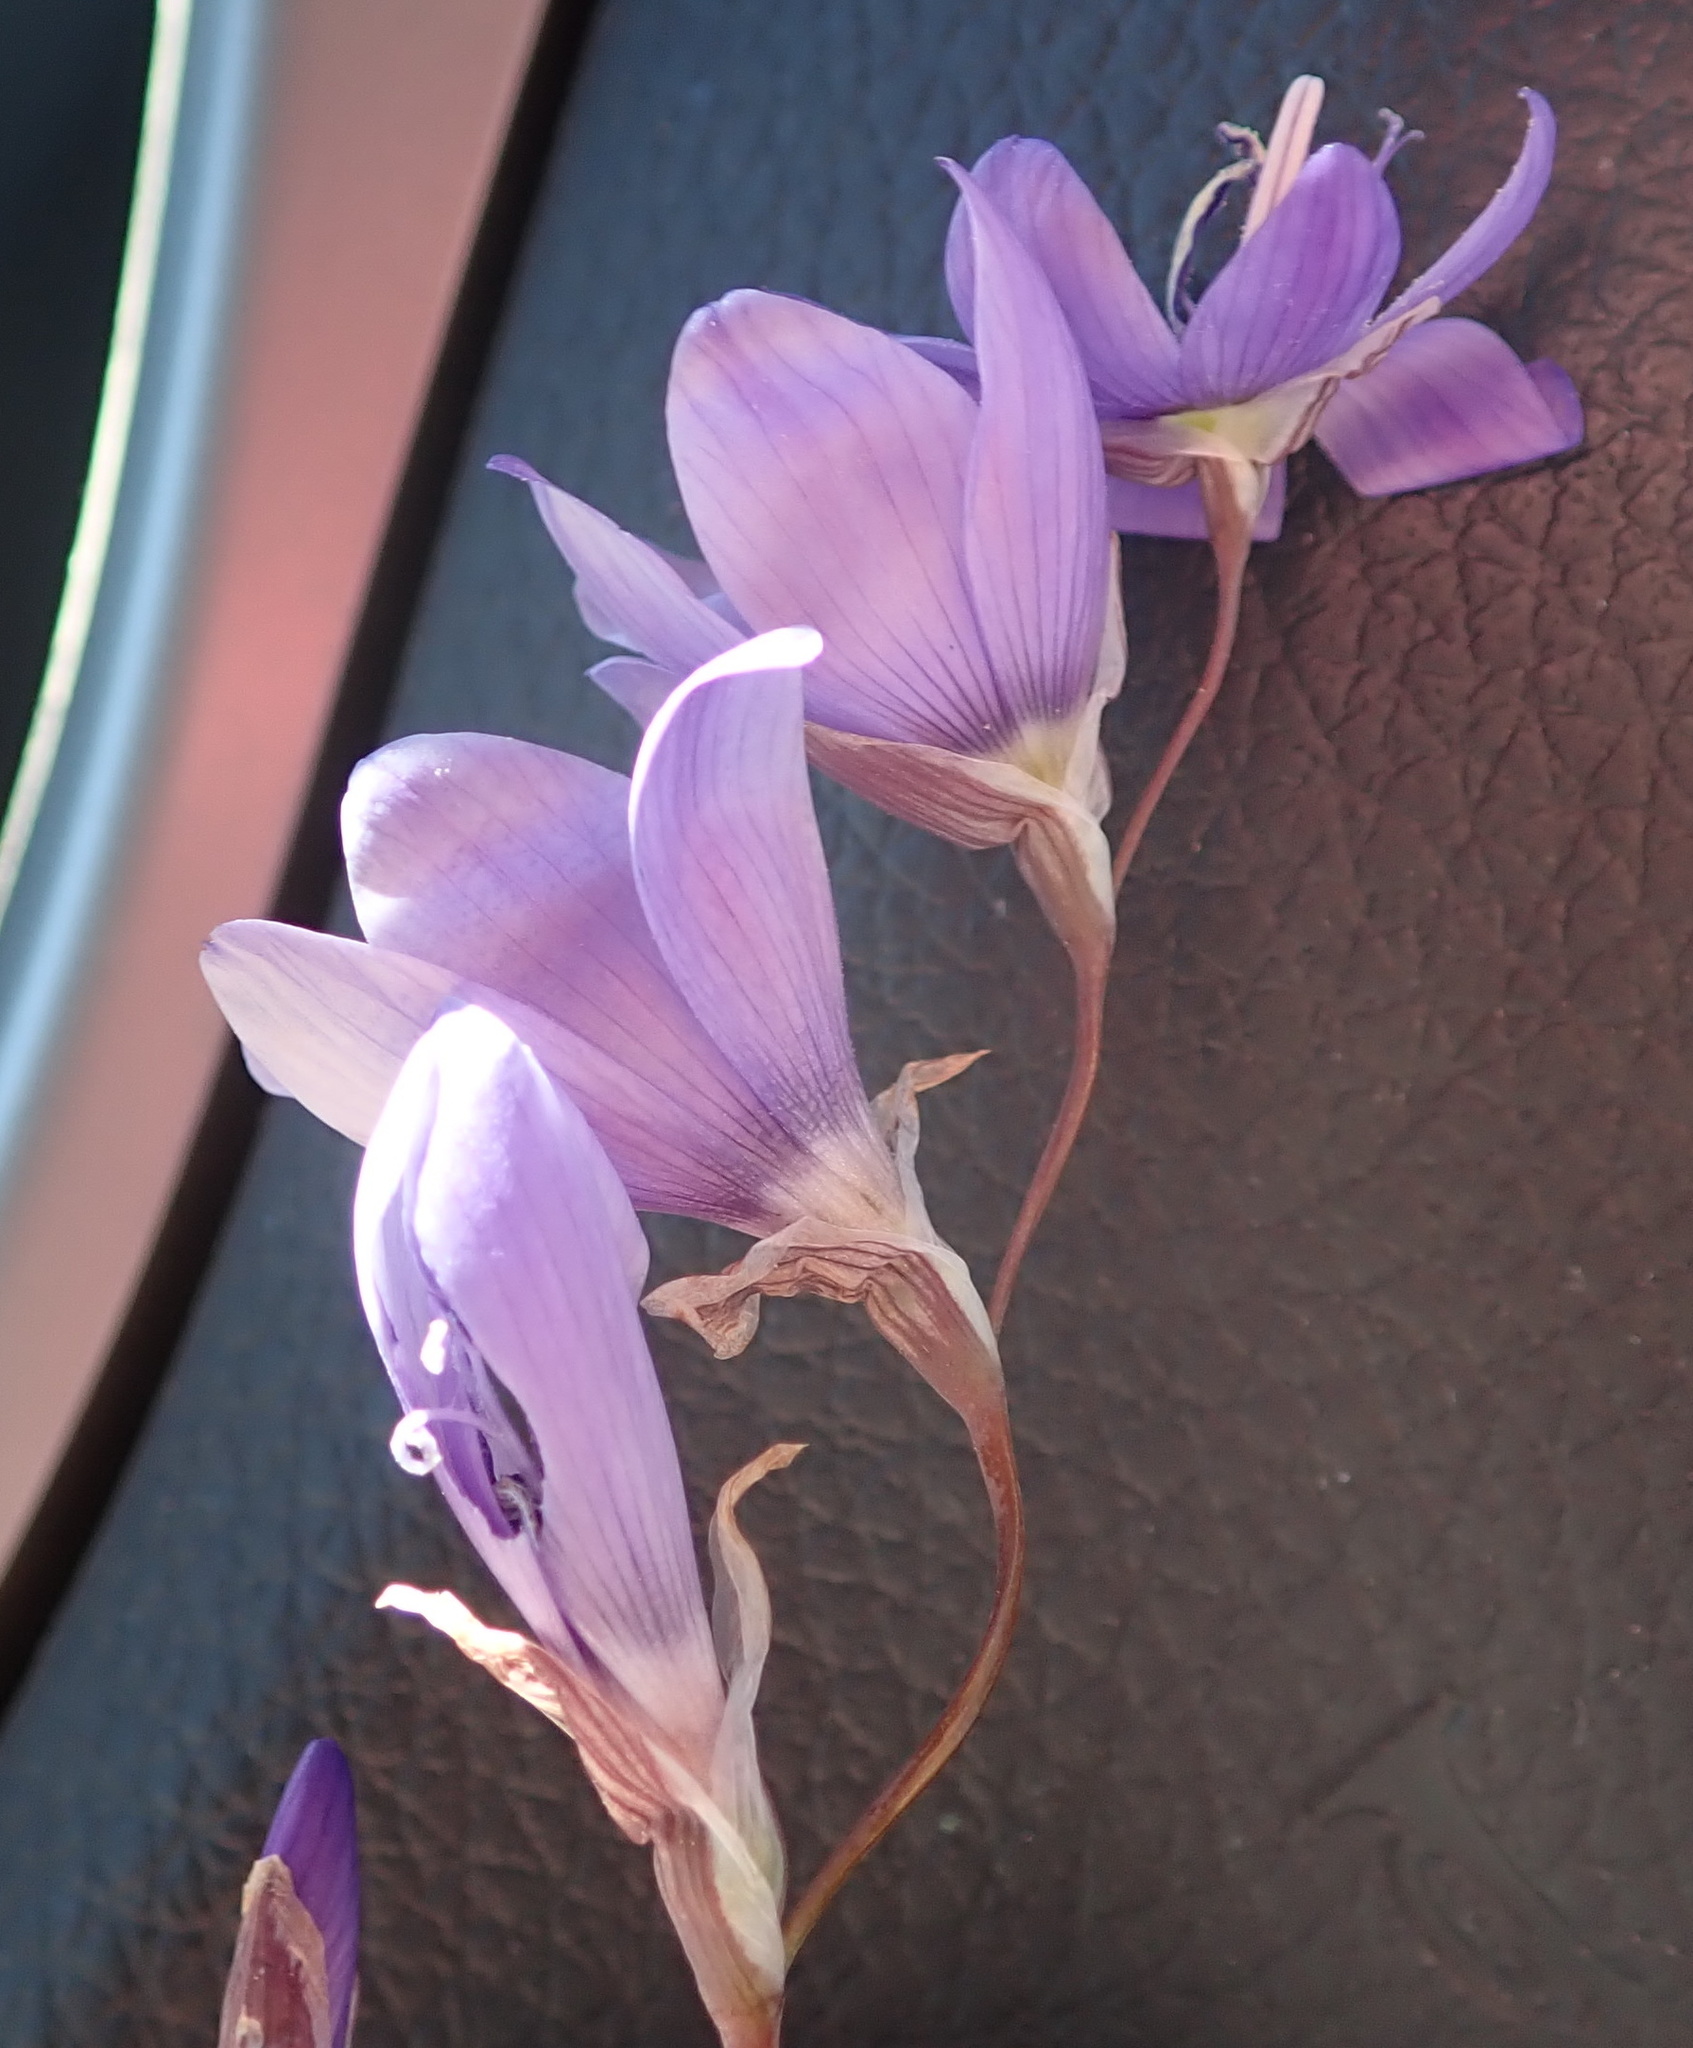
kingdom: Plantae
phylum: Tracheophyta
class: Liliopsida
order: Asparagales
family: Iridaceae
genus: Geissorhiza
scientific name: Geissorhiza heterostyla
